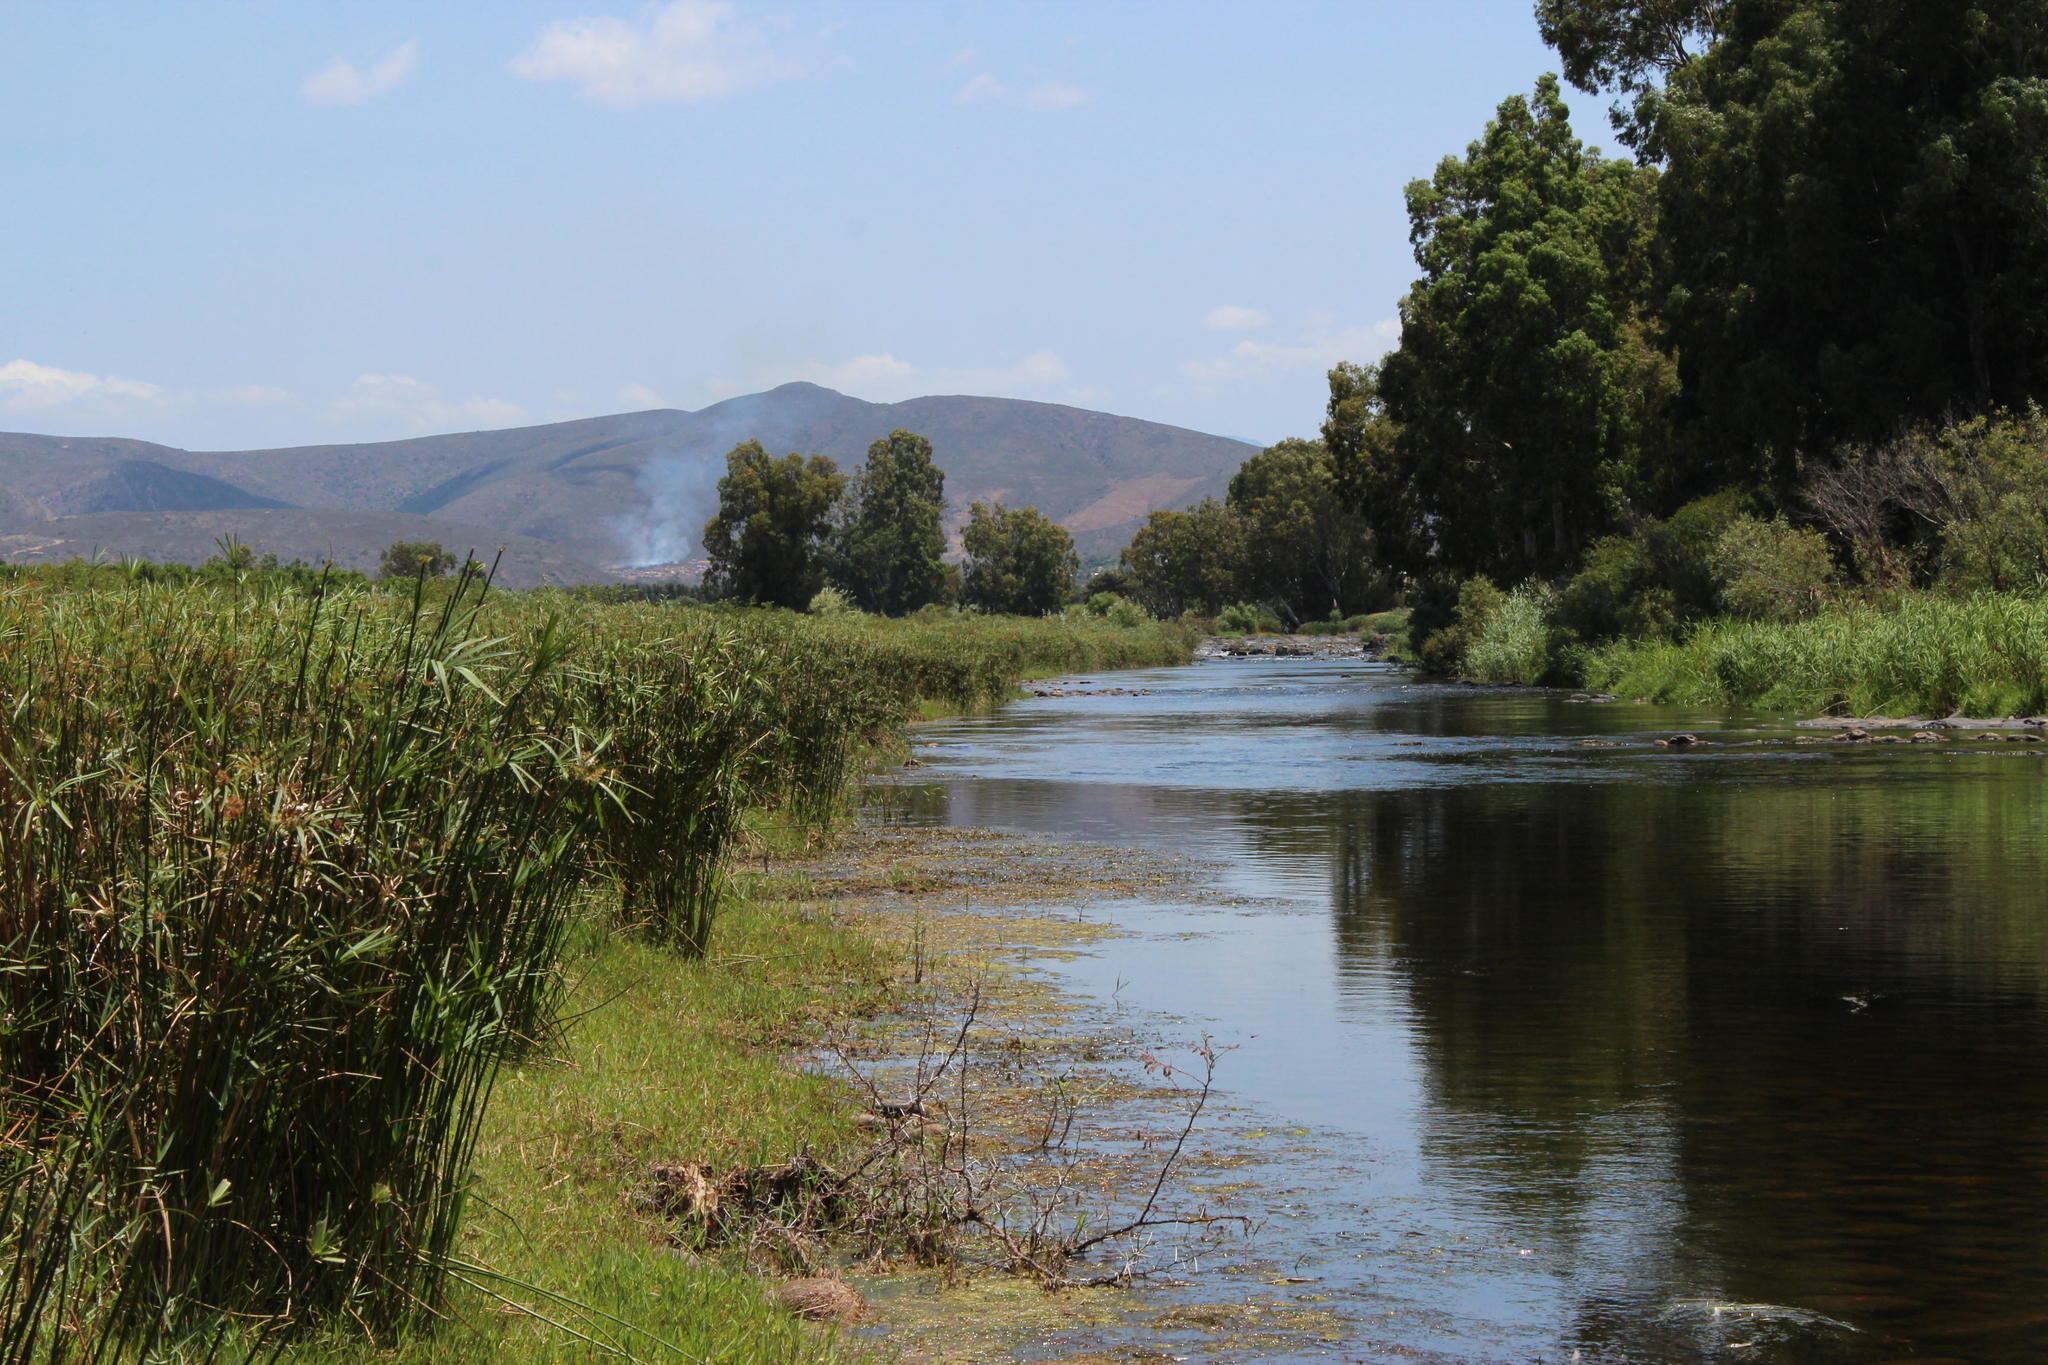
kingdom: Plantae
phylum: Tracheophyta
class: Liliopsida
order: Poales
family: Cyperaceae
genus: Cyperus
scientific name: Cyperus textilis
